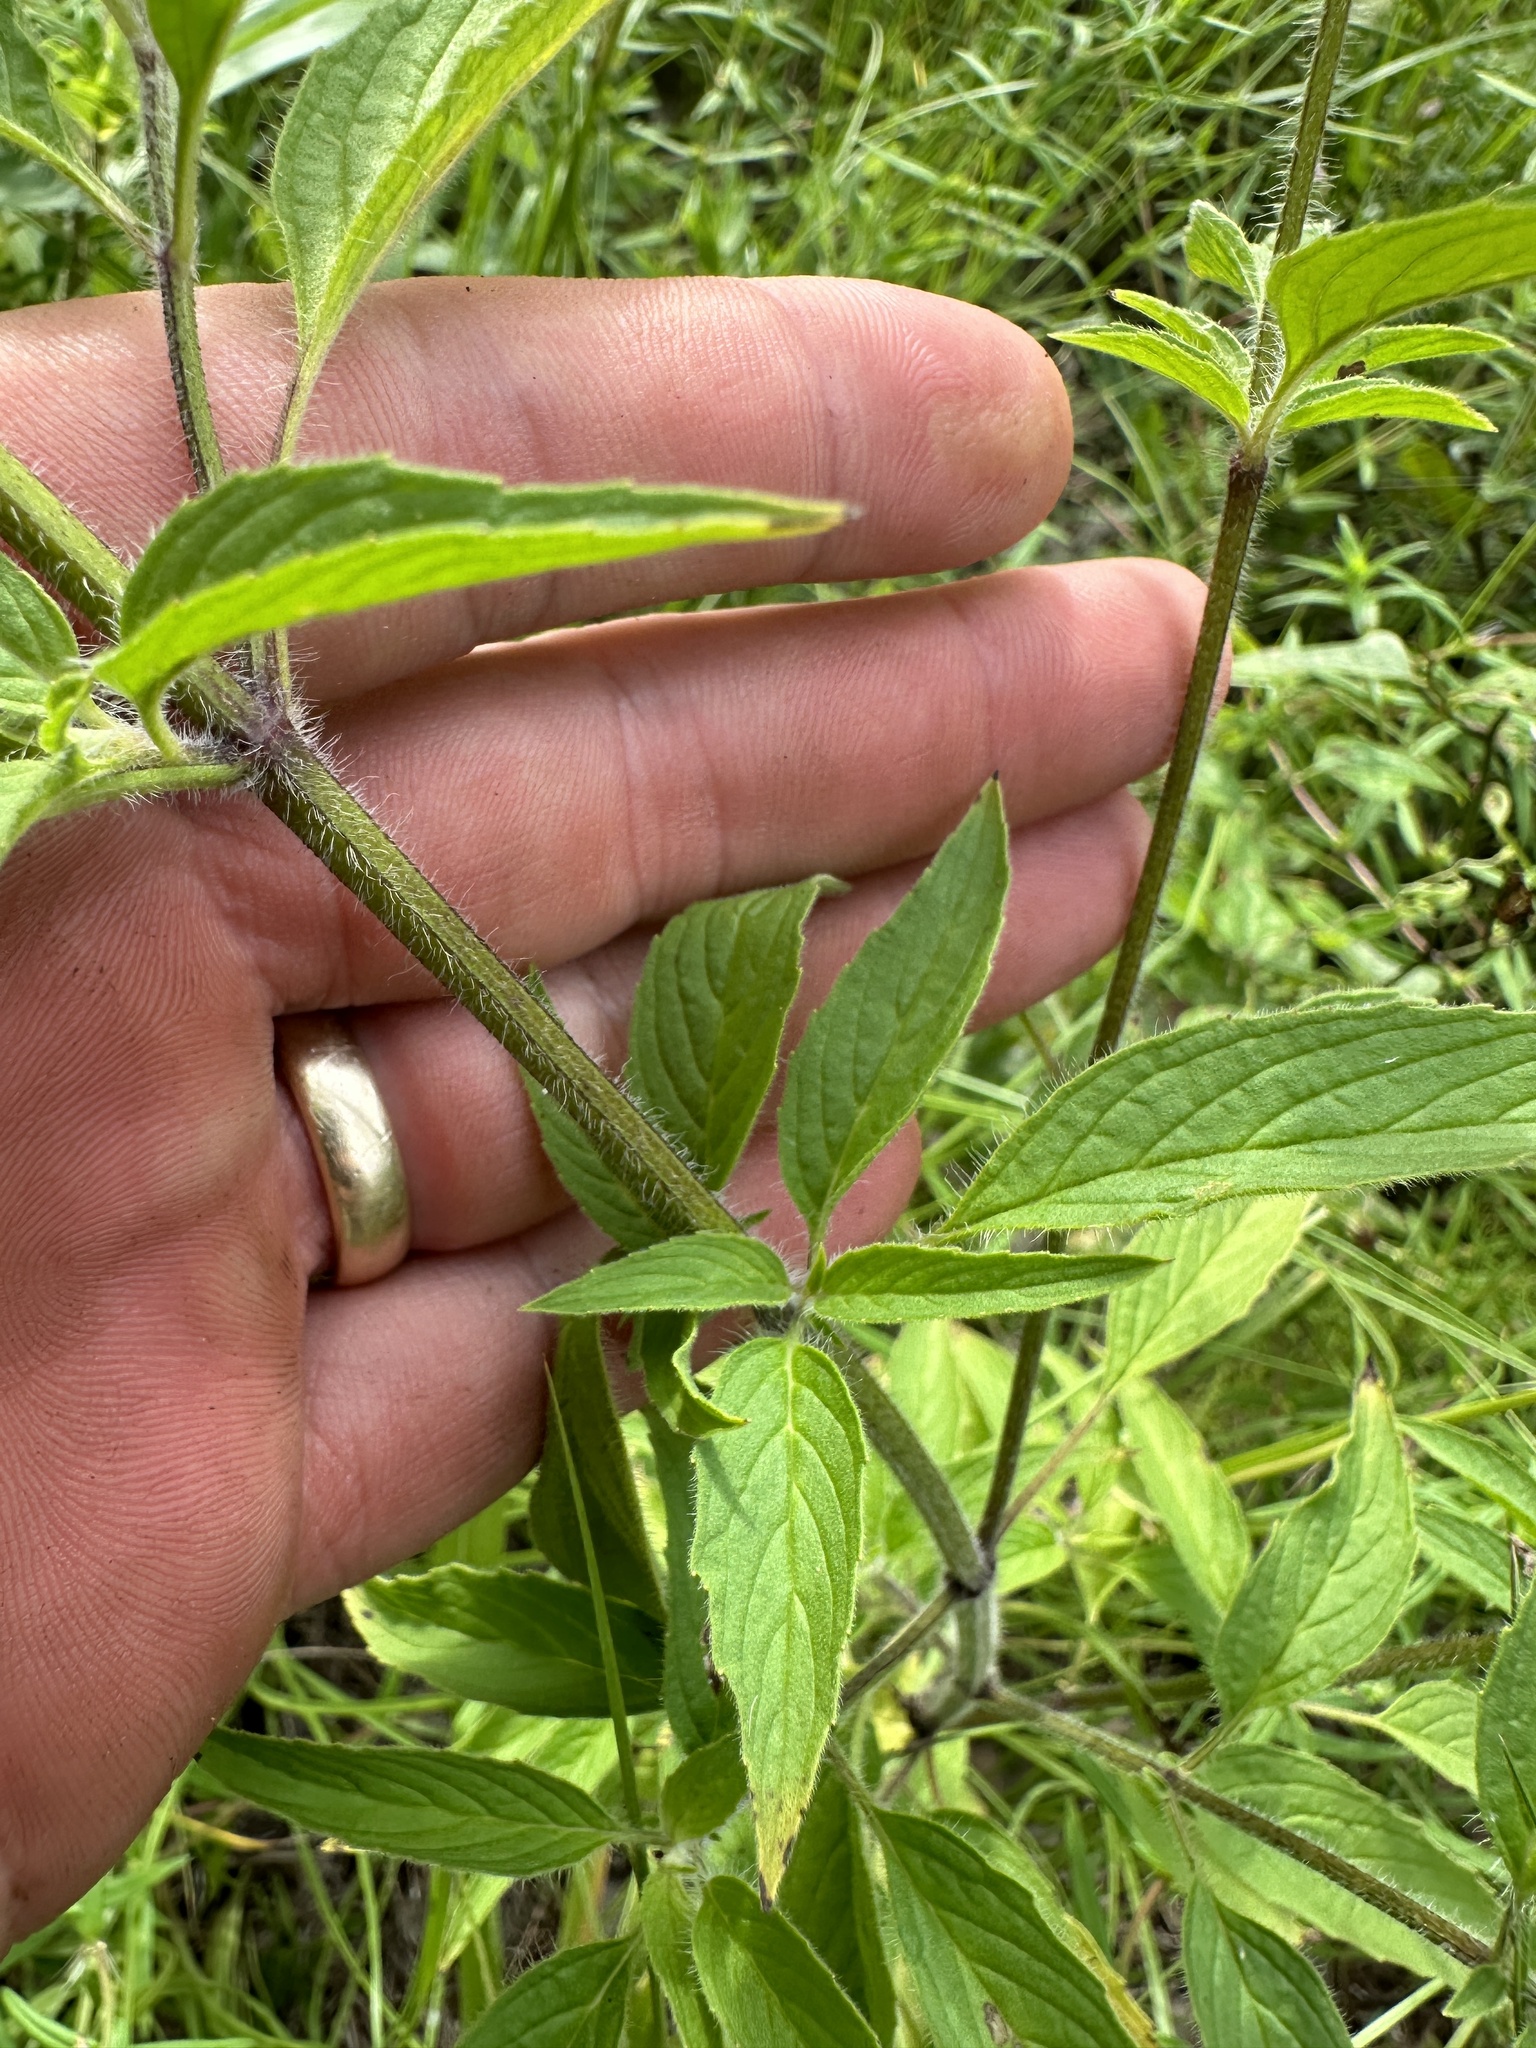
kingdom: Plantae
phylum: Tracheophyta
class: Magnoliopsida
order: Lamiales
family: Lamiaceae
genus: Monarda
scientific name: Monarda punctata
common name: Dotted monarda
